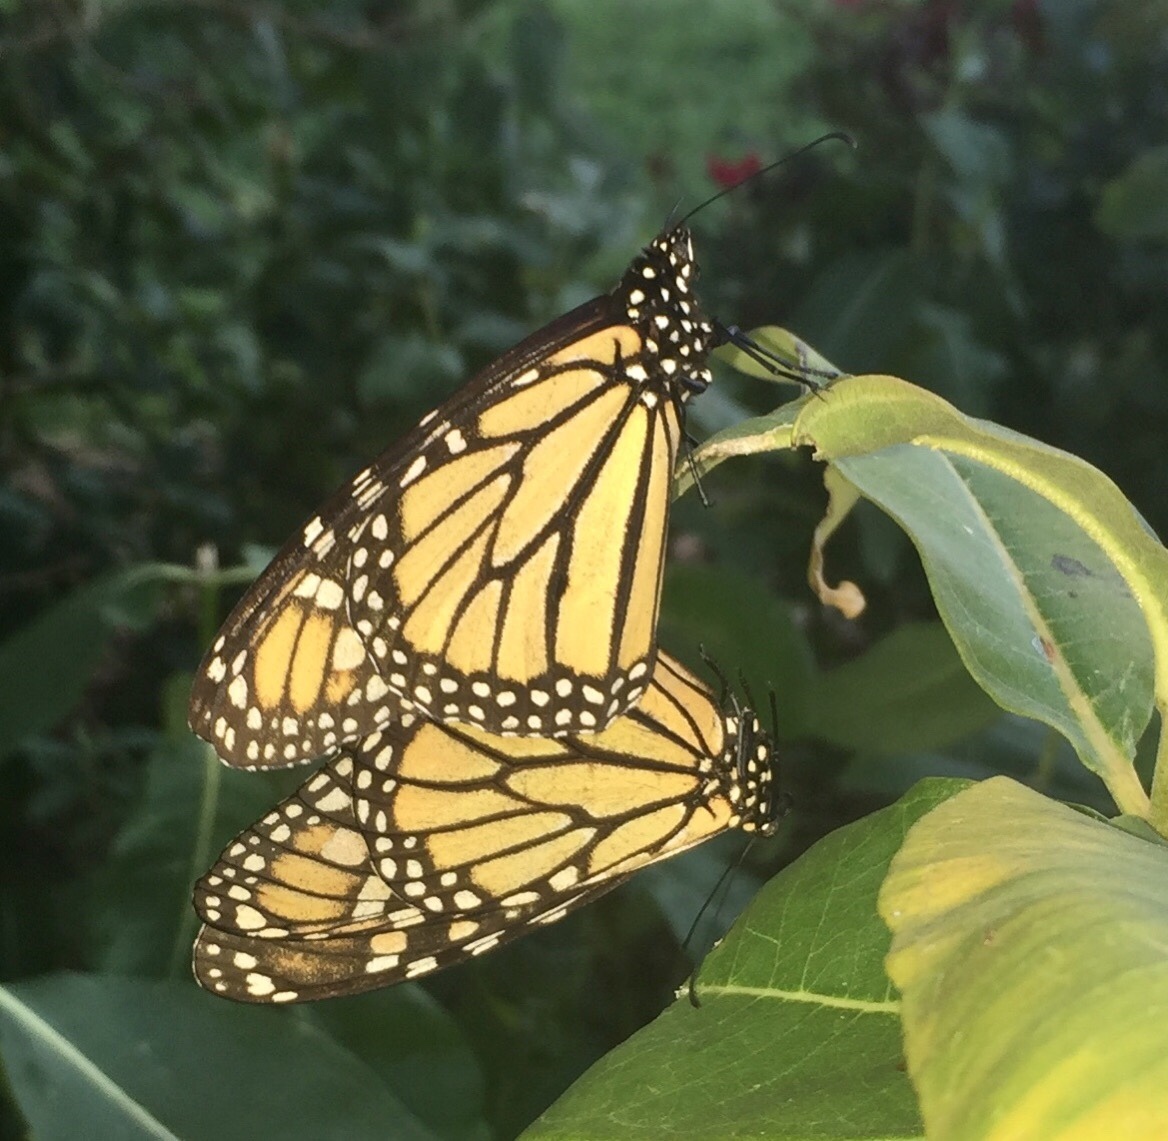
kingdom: Animalia
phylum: Arthropoda
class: Insecta
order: Lepidoptera
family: Nymphalidae
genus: Danaus
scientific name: Danaus plexippus
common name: Monarch
